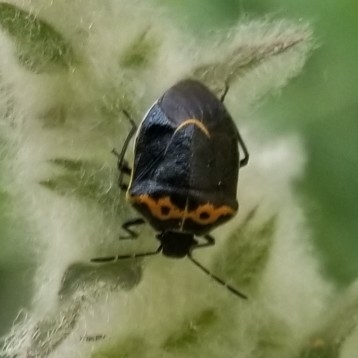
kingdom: Animalia
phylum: Arthropoda
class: Insecta
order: Hemiptera
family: Pentatomidae
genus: Cosmopepla
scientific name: Cosmopepla conspicillaris
